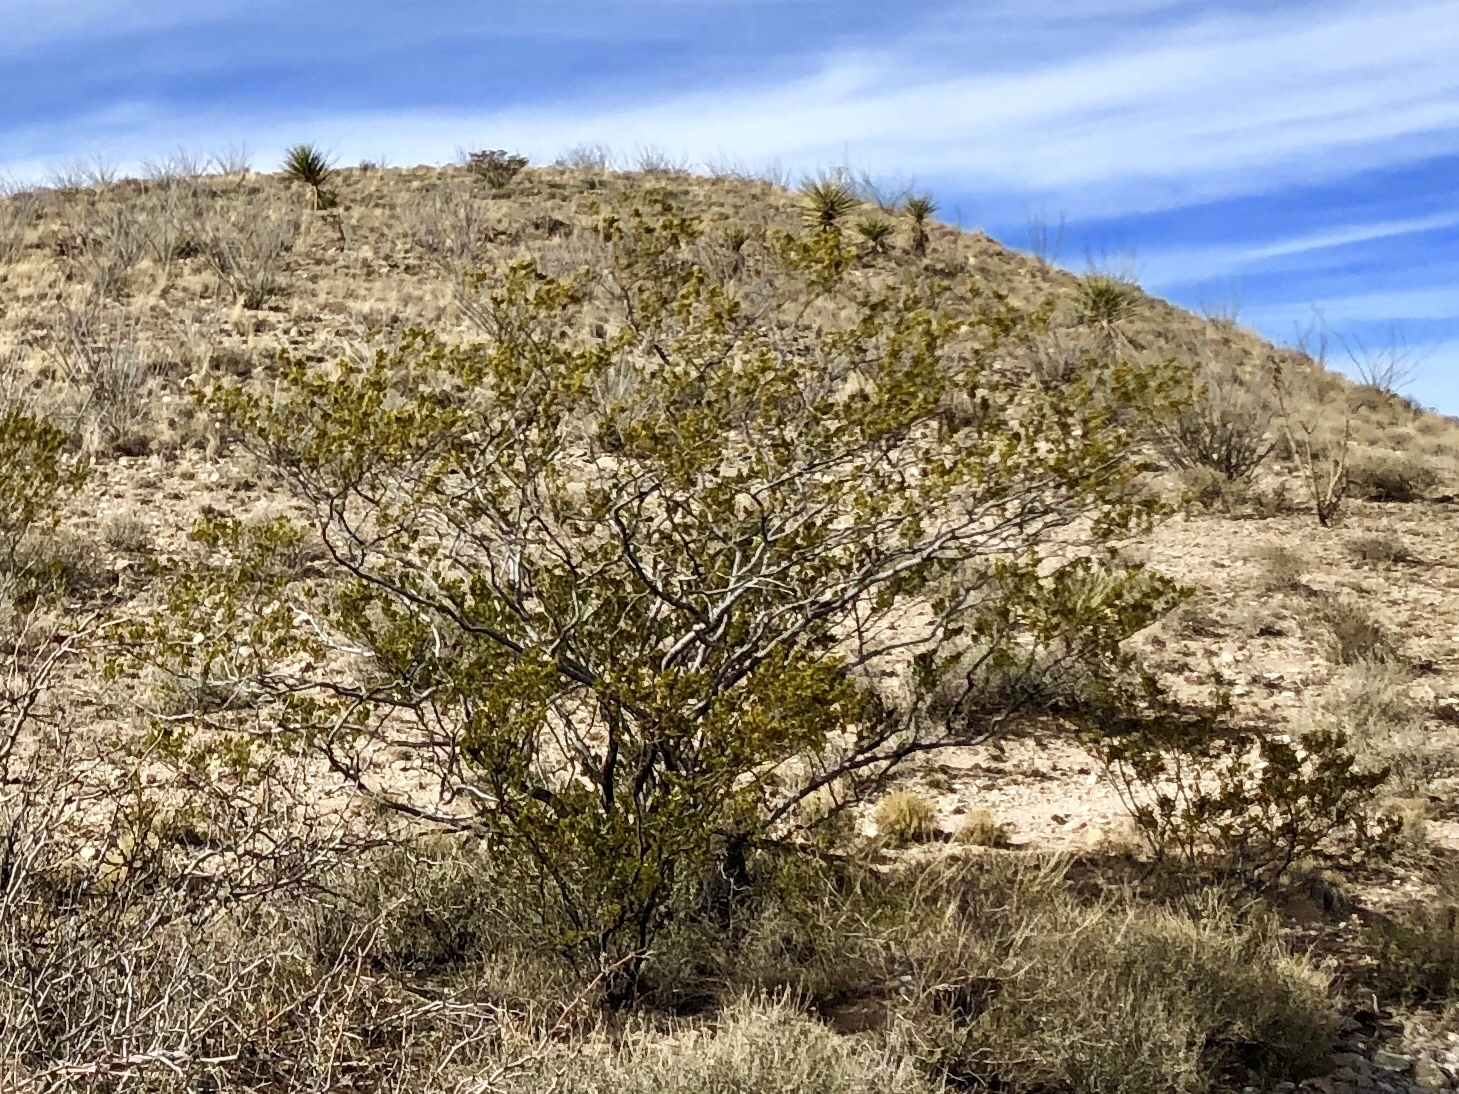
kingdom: Plantae
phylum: Tracheophyta
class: Magnoliopsida
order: Zygophyllales
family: Zygophyllaceae
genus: Larrea
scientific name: Larrea tridentata
